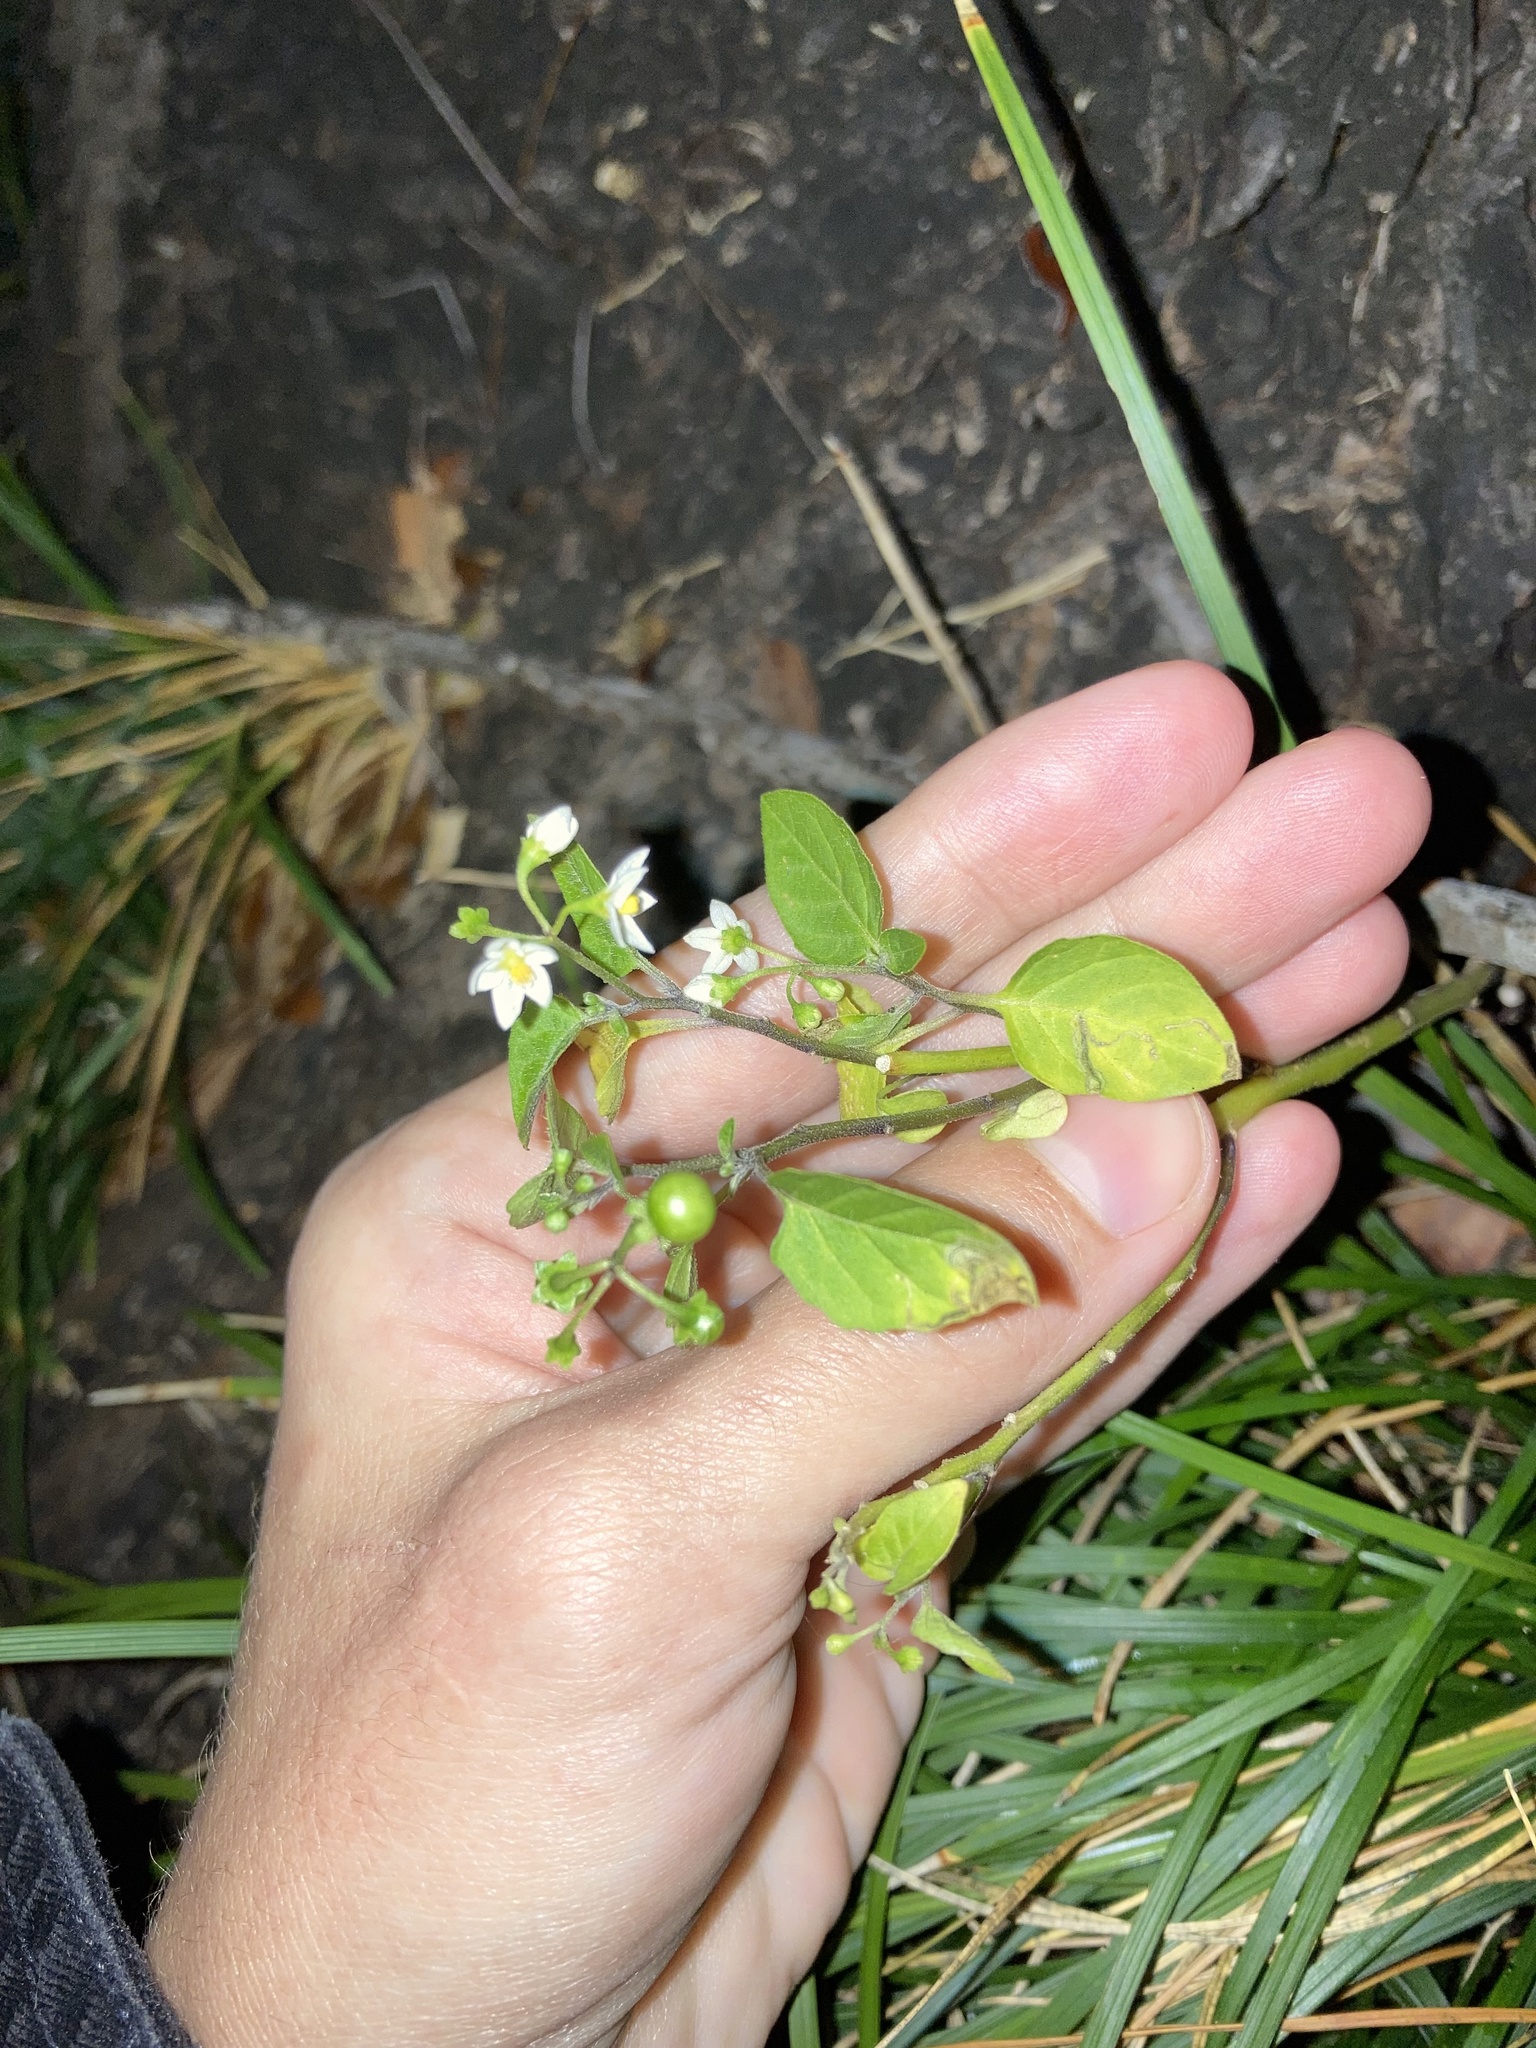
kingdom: Plantae
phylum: Tracheophyta
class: Magnoliopsida
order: Solanales
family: Solanaceae
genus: Solanum
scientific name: Solanum americanum
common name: American black nightshade
